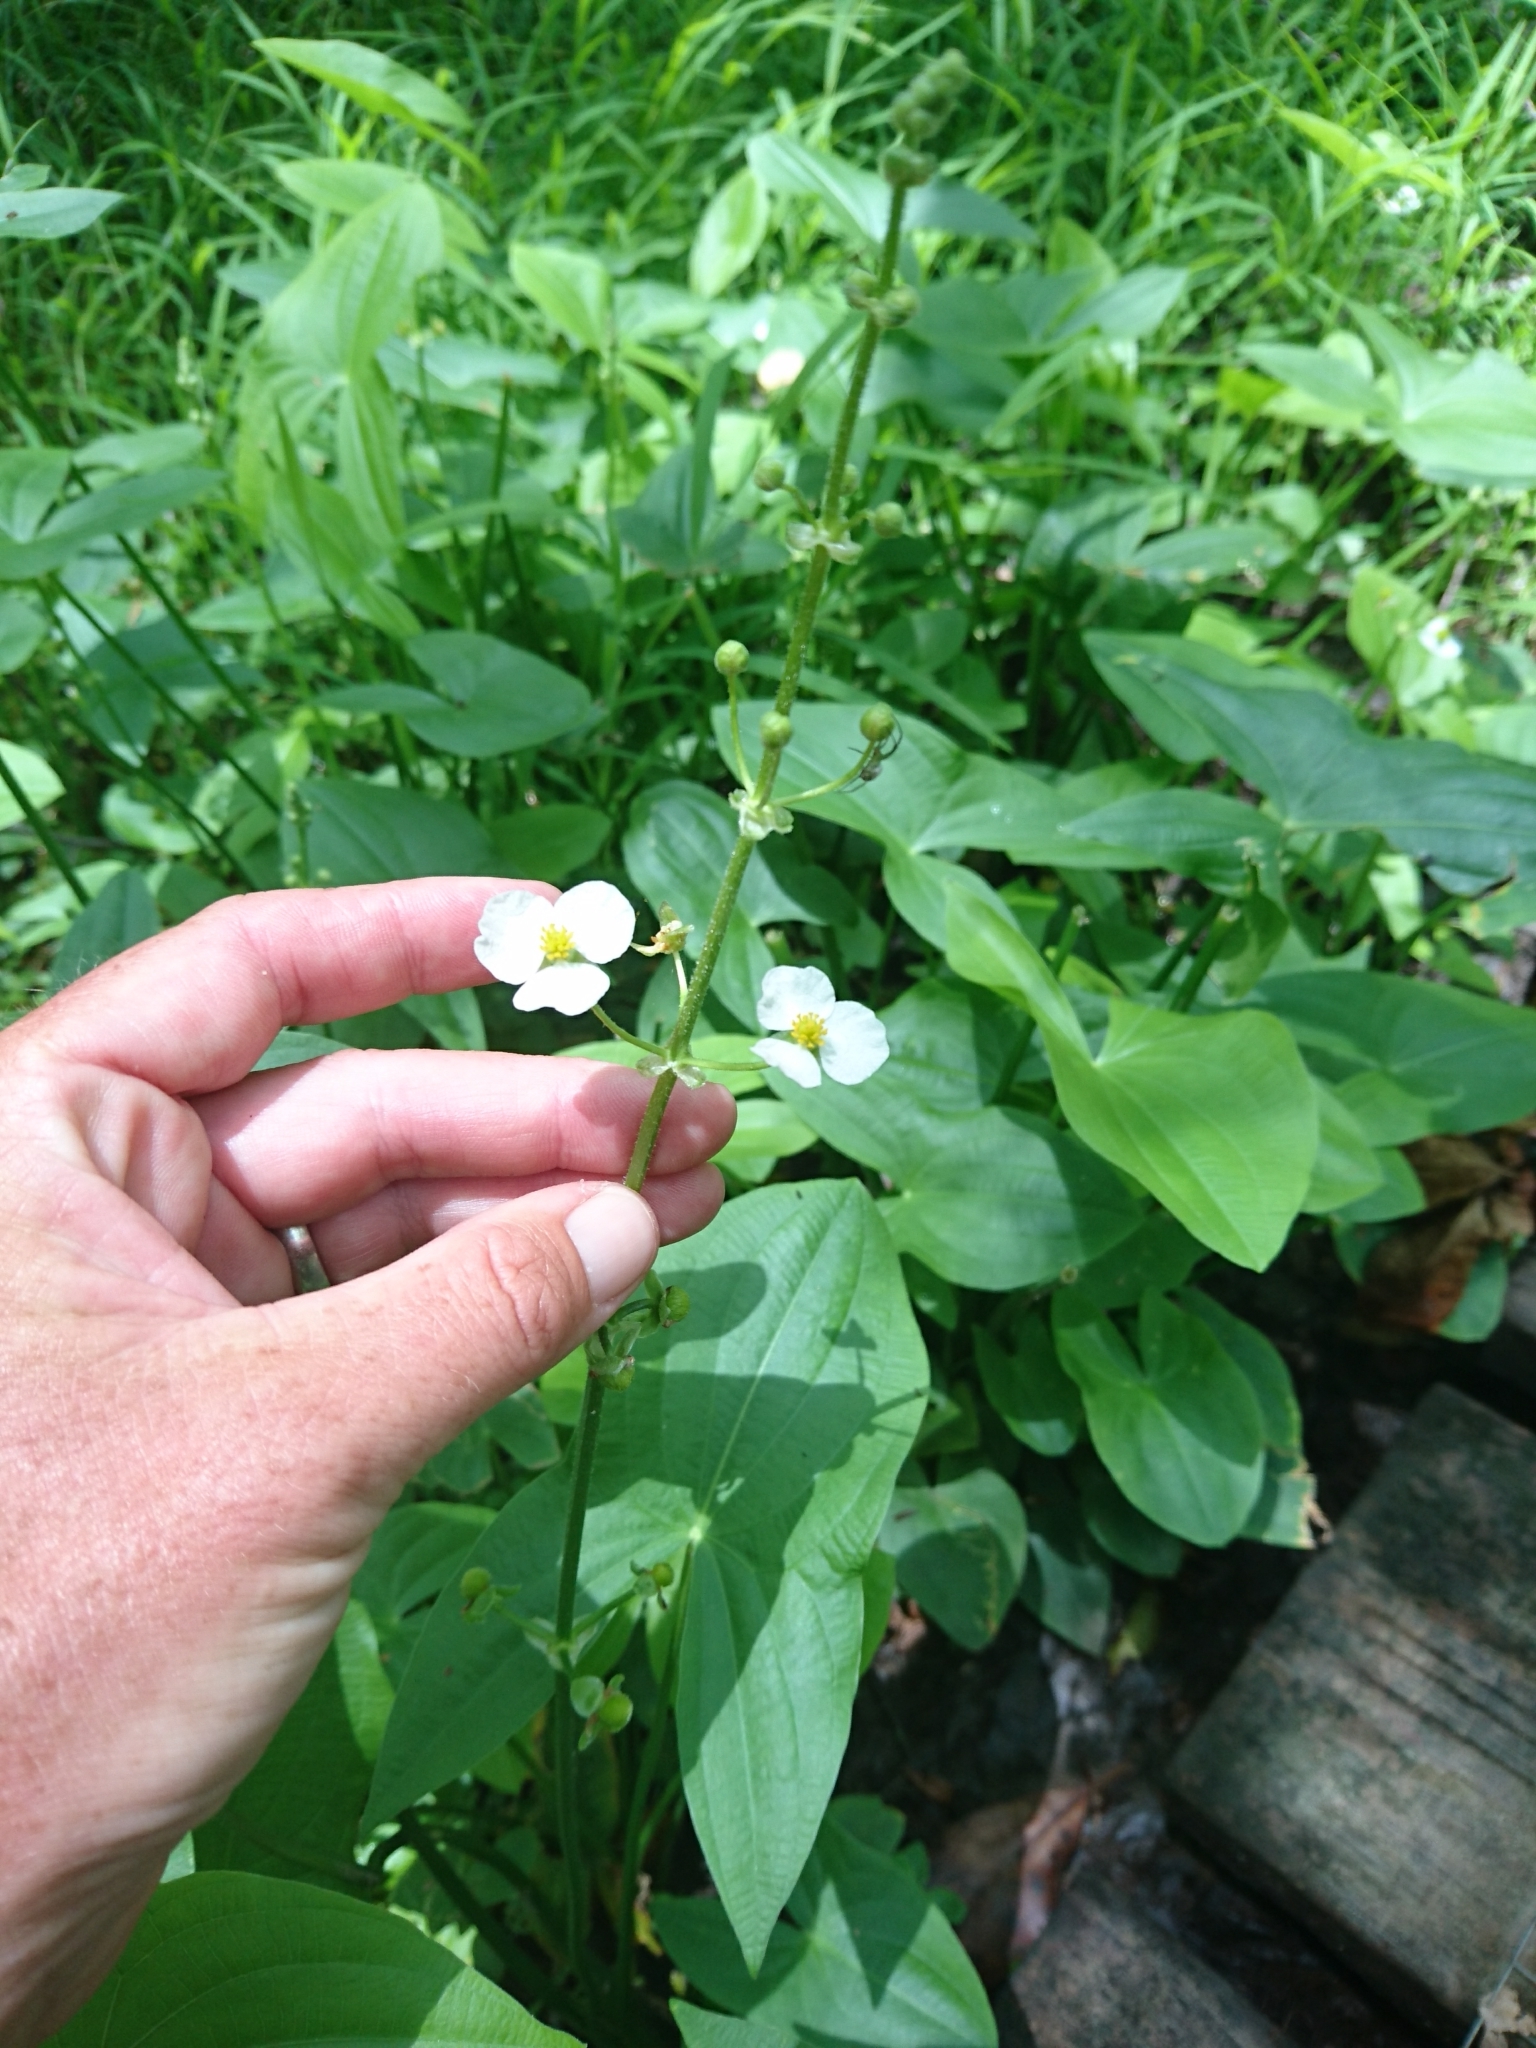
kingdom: Plantae
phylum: Tracheophyta
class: Liliopsida
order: Alismatales
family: Alismataceae
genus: Sagittaria
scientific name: Sagittaria latifolia
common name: Duck-potato
